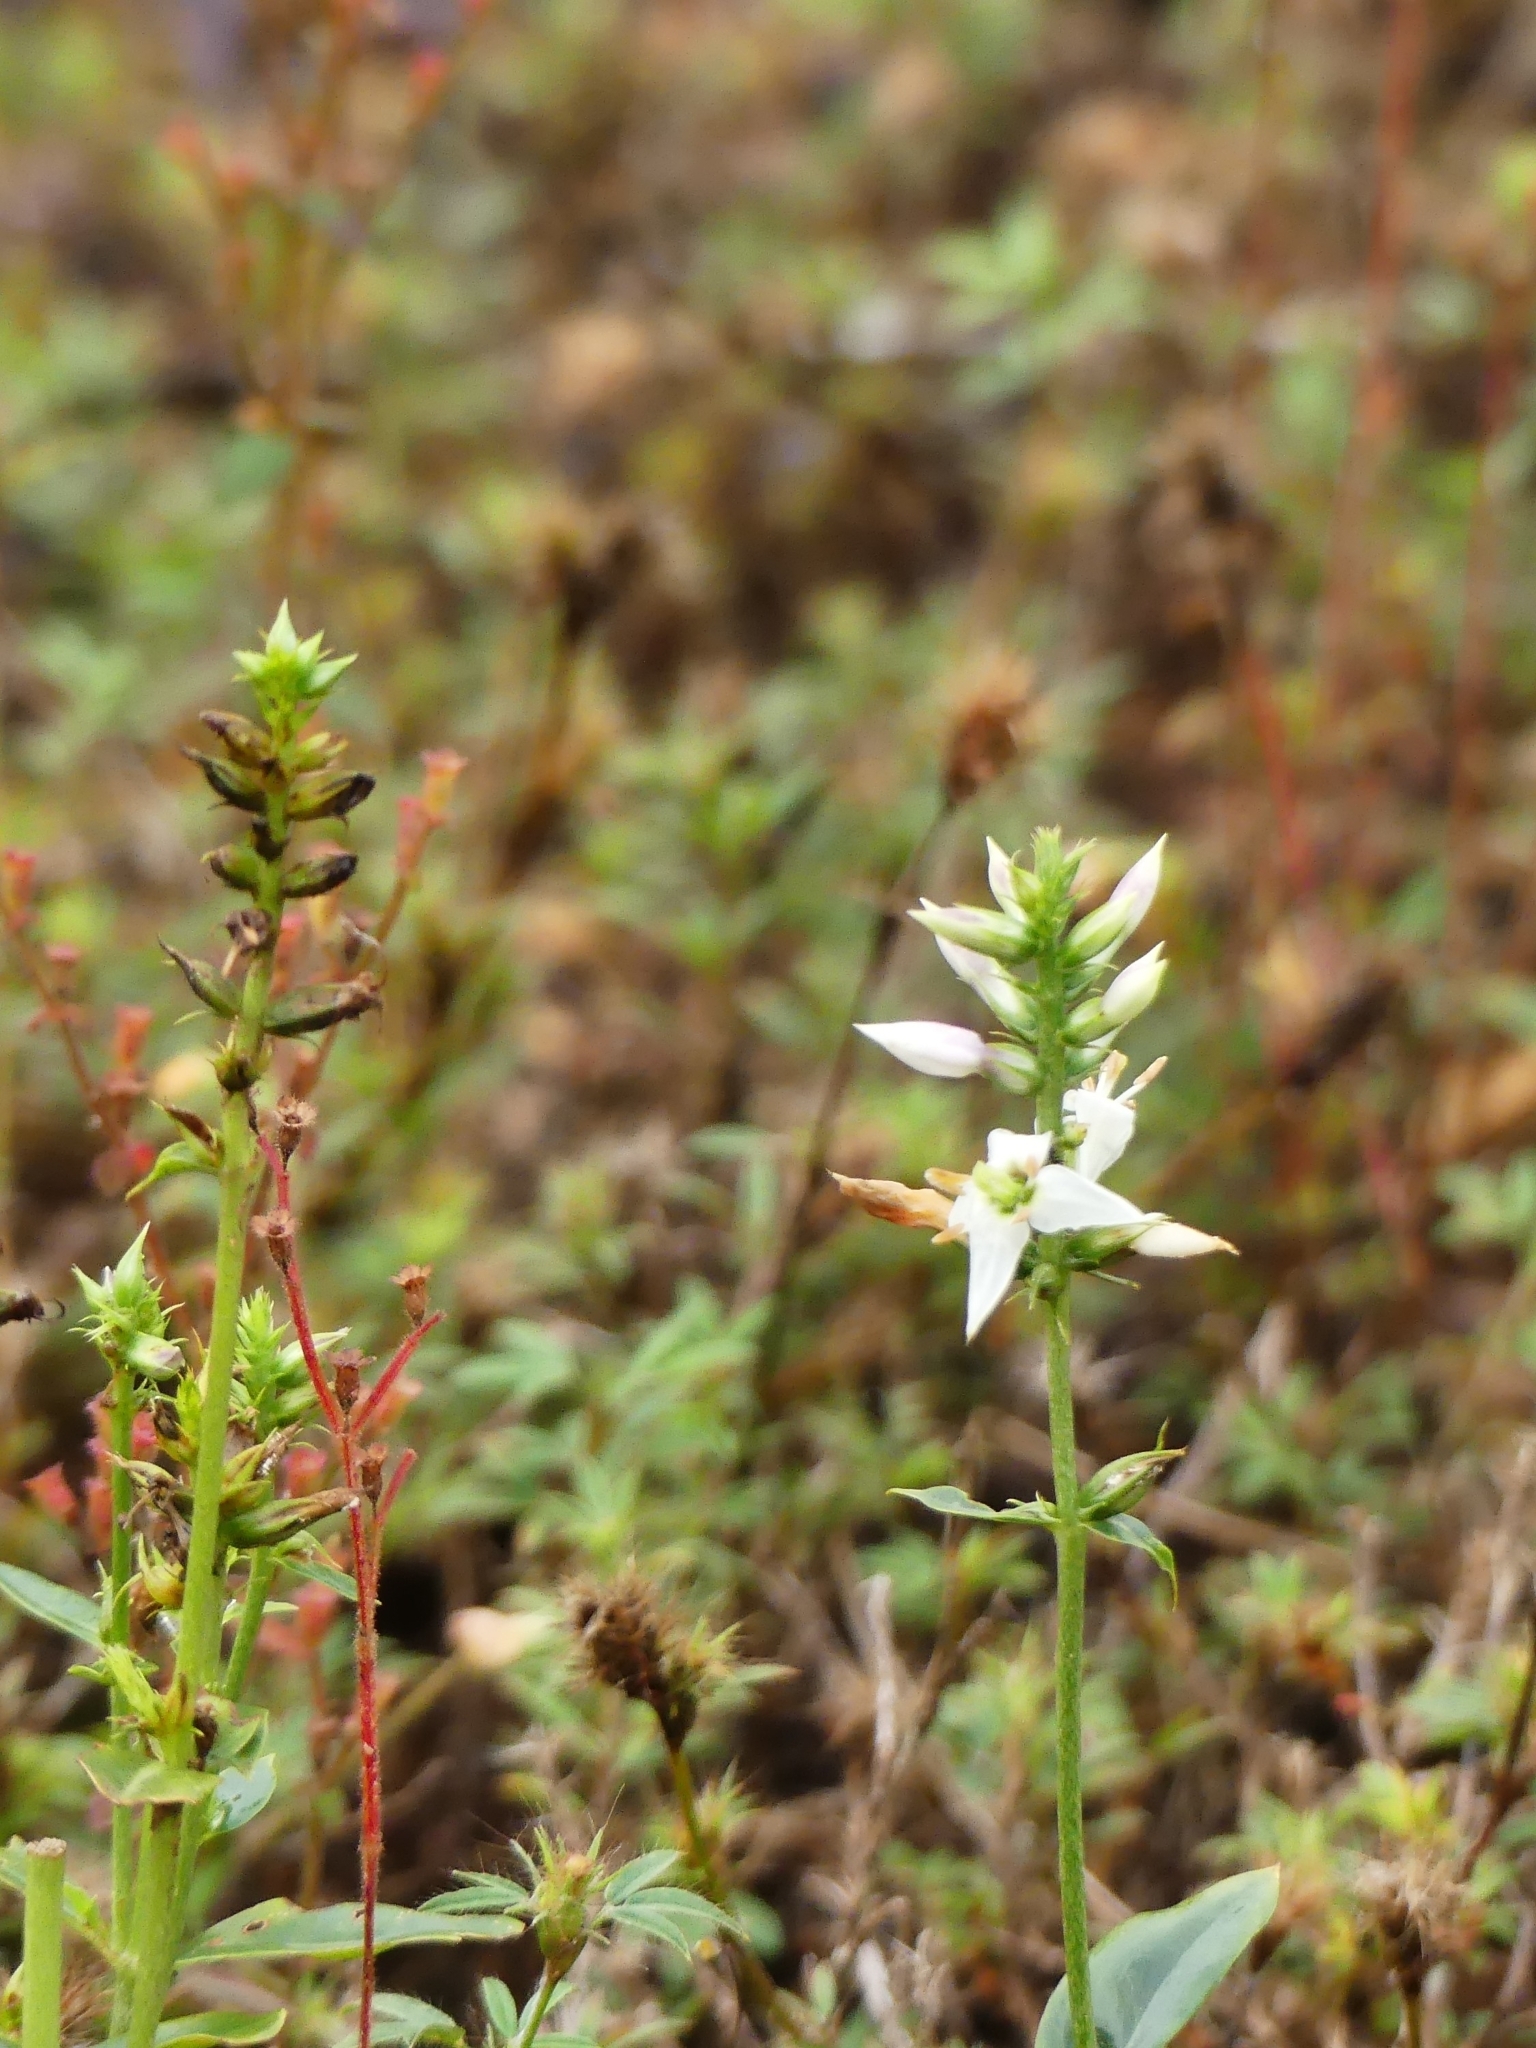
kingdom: Plantae
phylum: Tracheophyta
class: Magnoliopsida
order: Gentianales
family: Gentianaceae
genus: Coutoubea
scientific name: Coutoubea spicata
